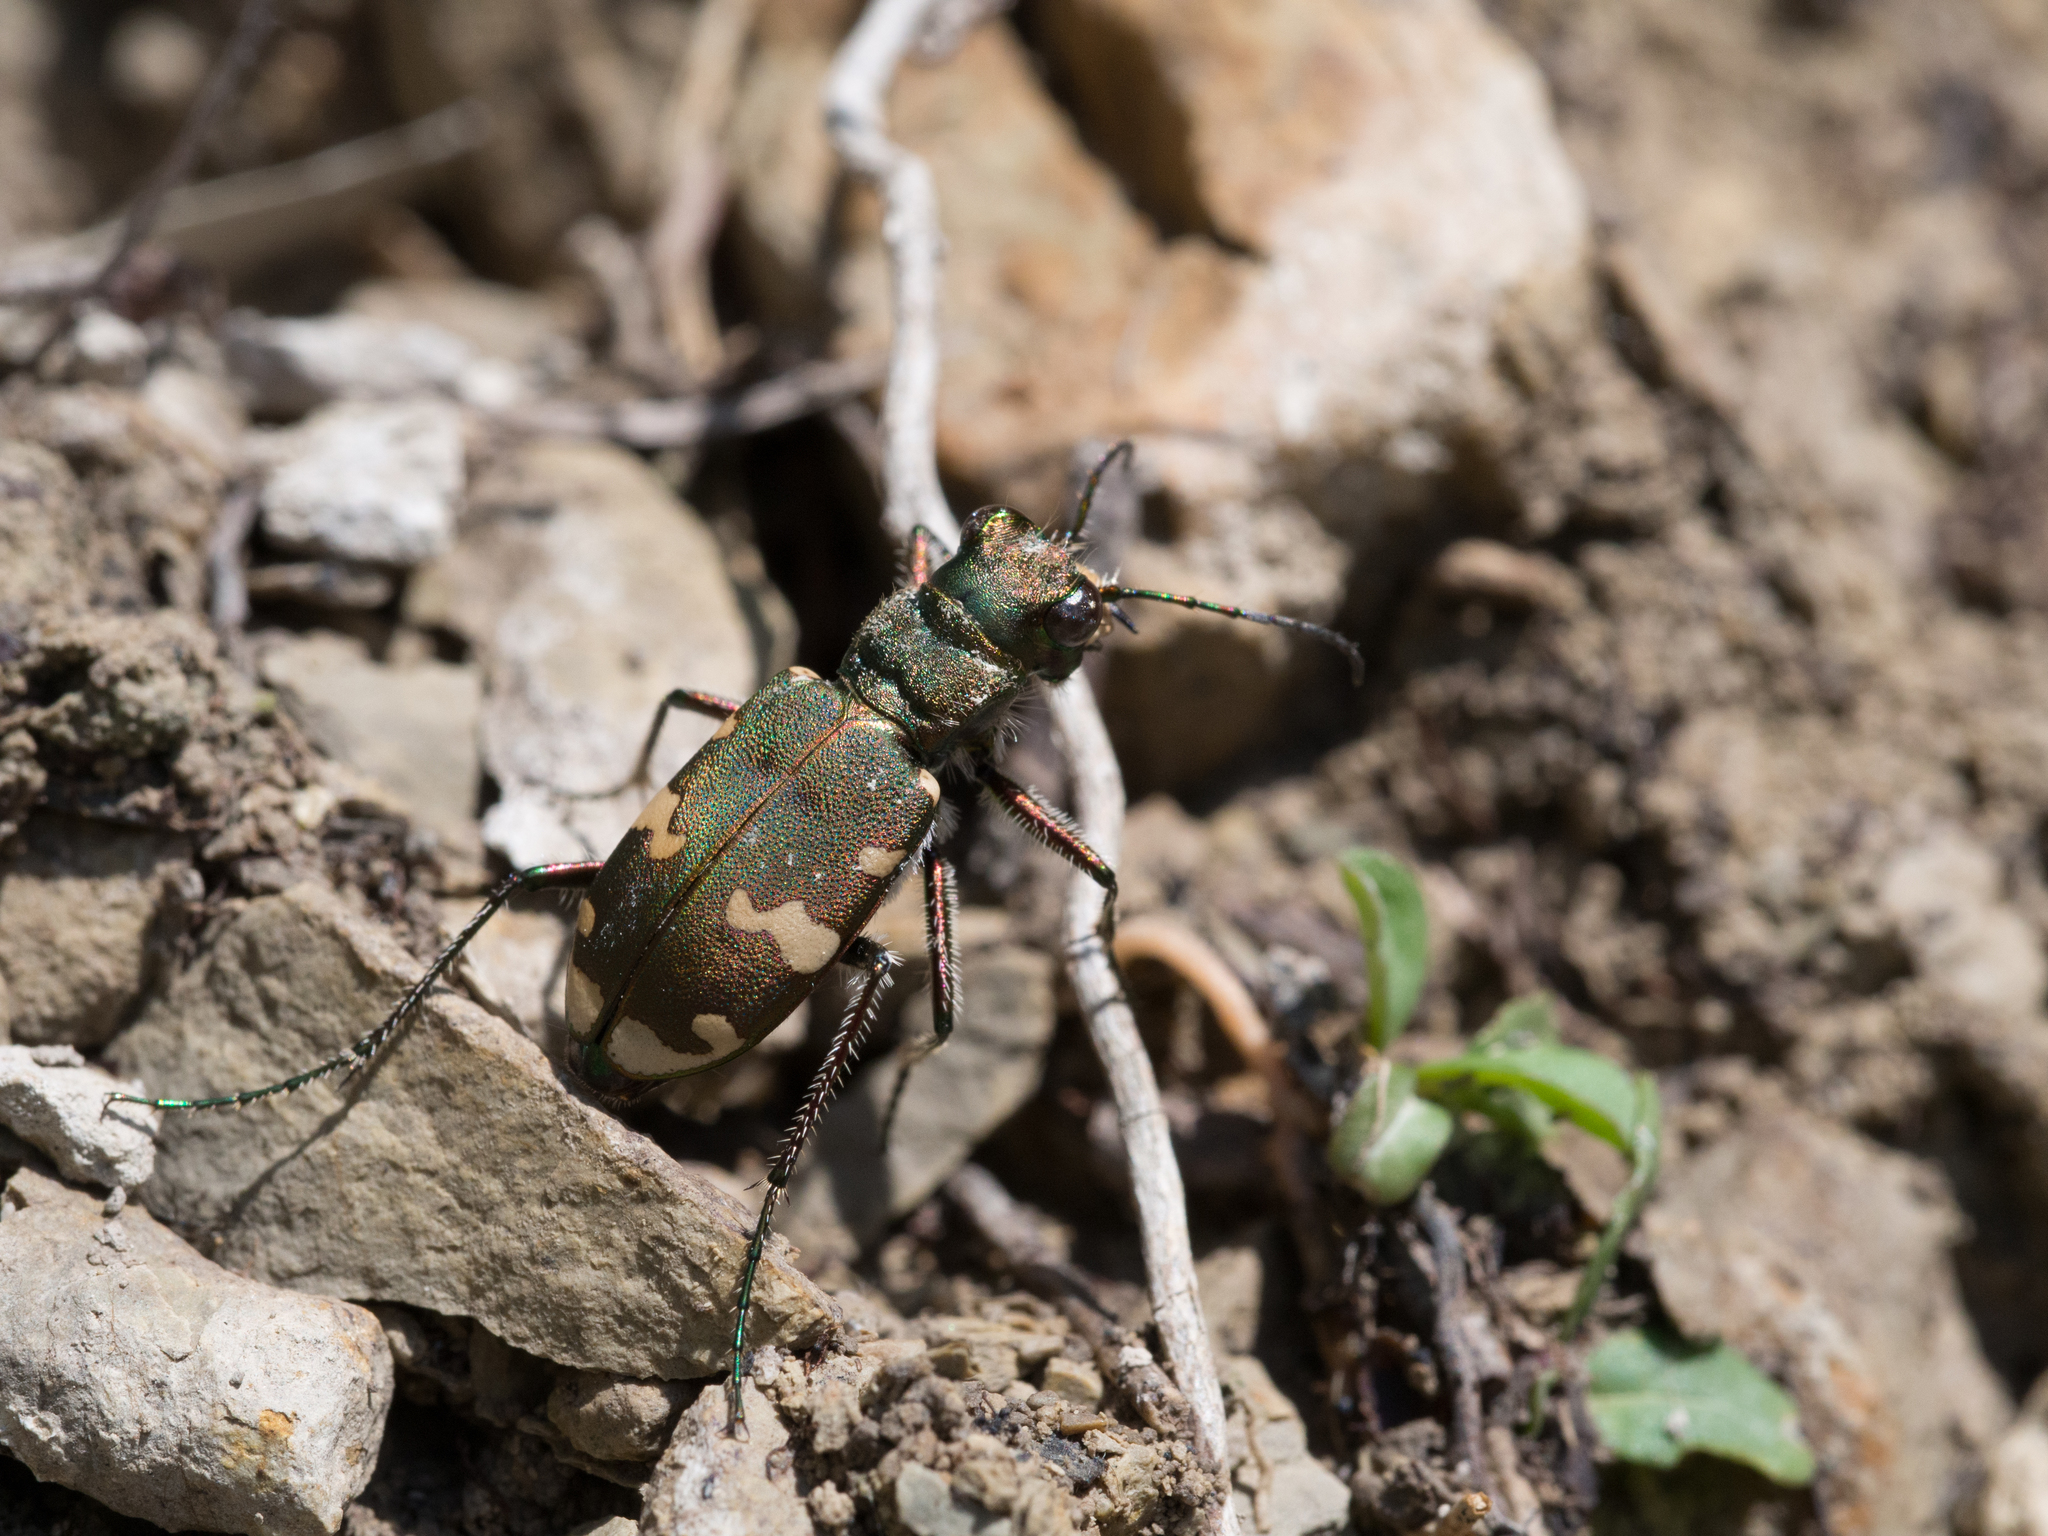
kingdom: Animalia
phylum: Arthropoda
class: Insecta
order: Coleoptera
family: Carabidae
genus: Cicindela
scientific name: Cicindela sylvicola
